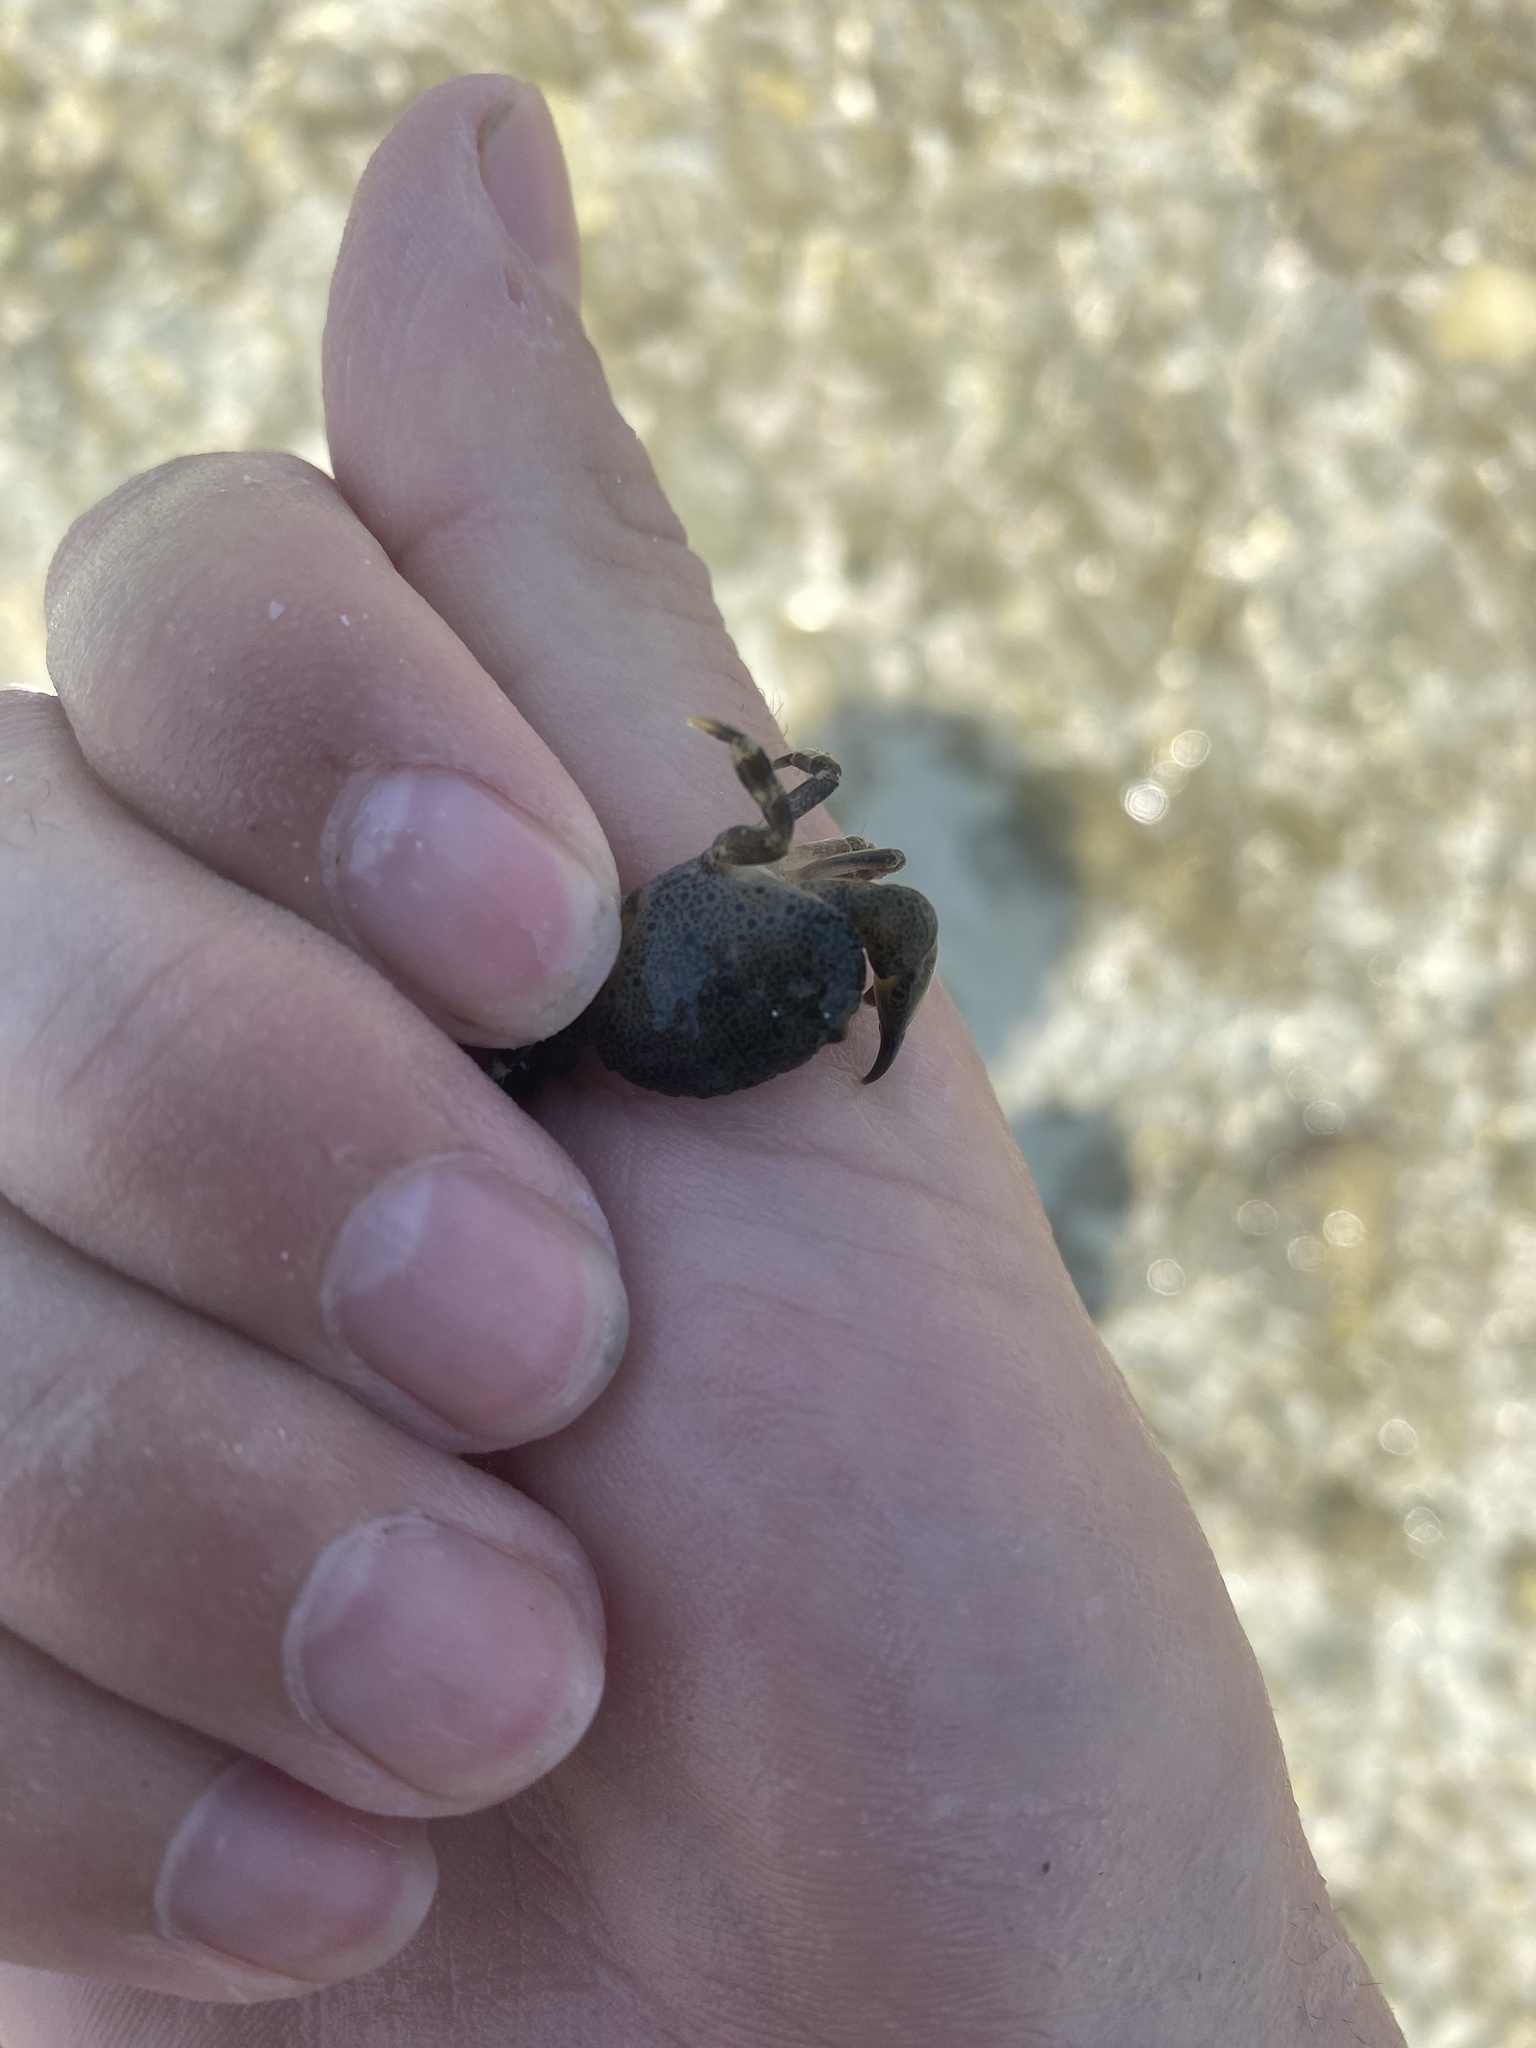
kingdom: Animalia
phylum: Arthropoda
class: Malacostraca
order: Decapoda
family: Menippidae
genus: Menippe
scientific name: Menippe mercenaria
